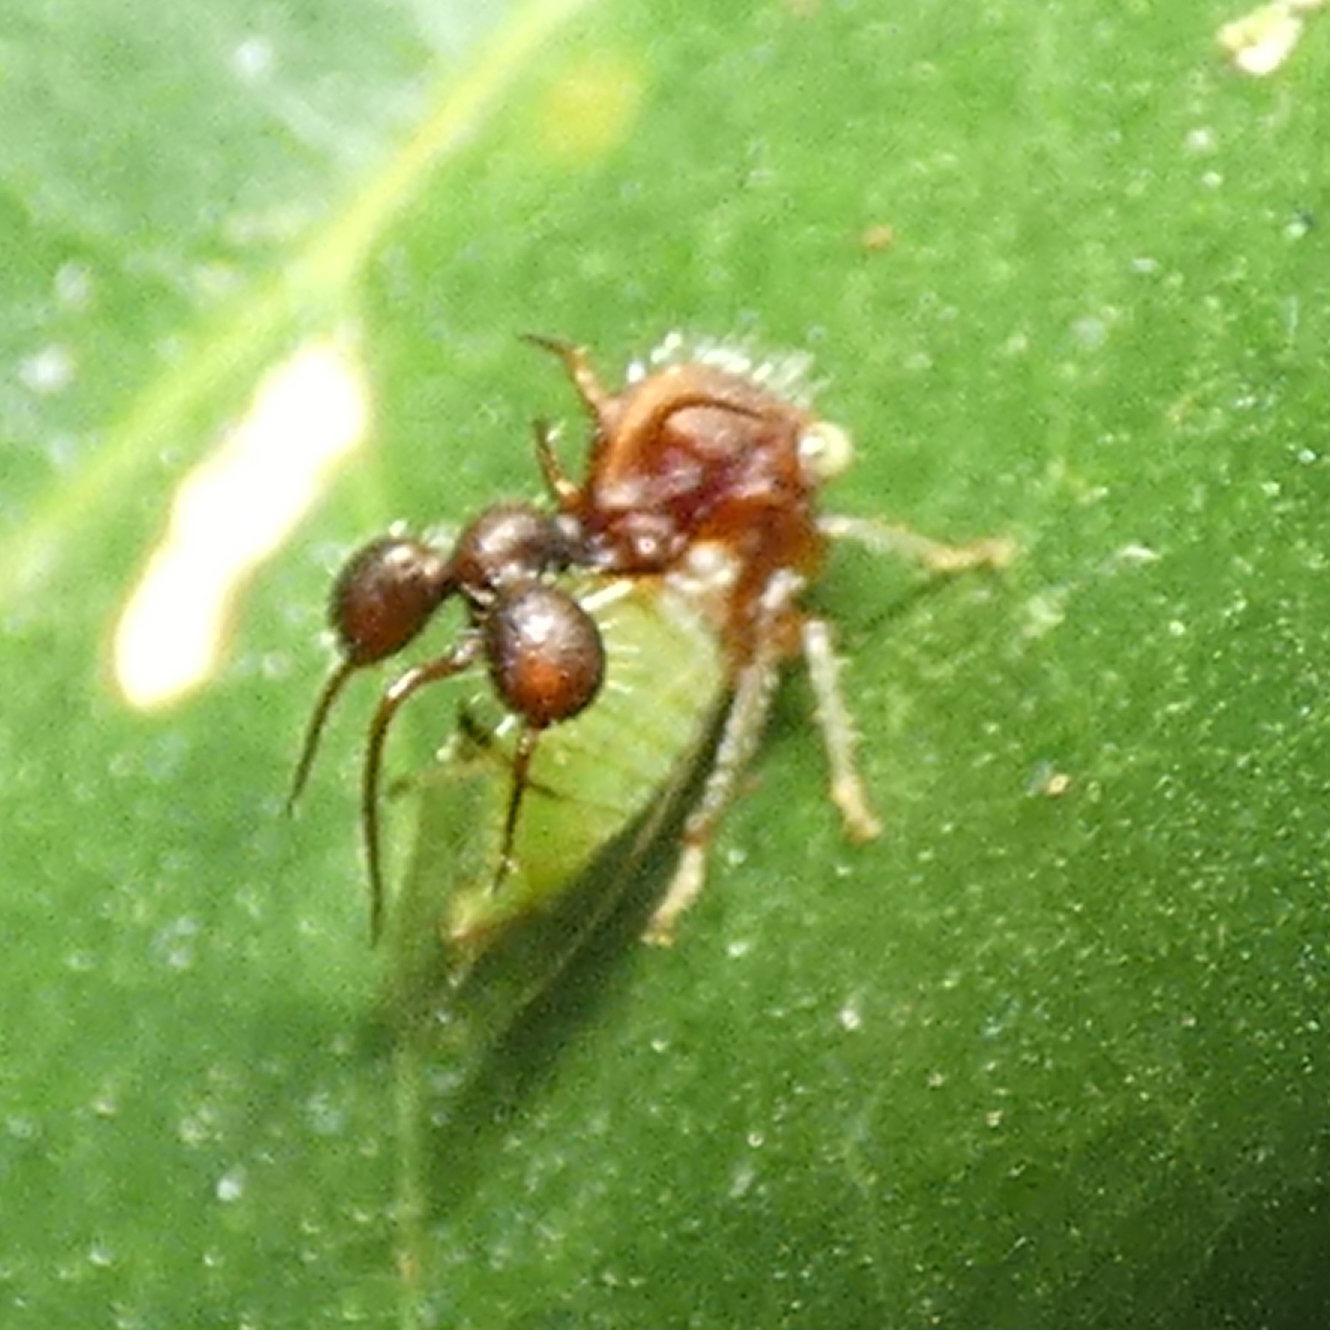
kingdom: Animalia
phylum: Arthropoda
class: Insecta
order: Hemiptera
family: Membracidae
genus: Cyphonia
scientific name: Cyphonia clavata
